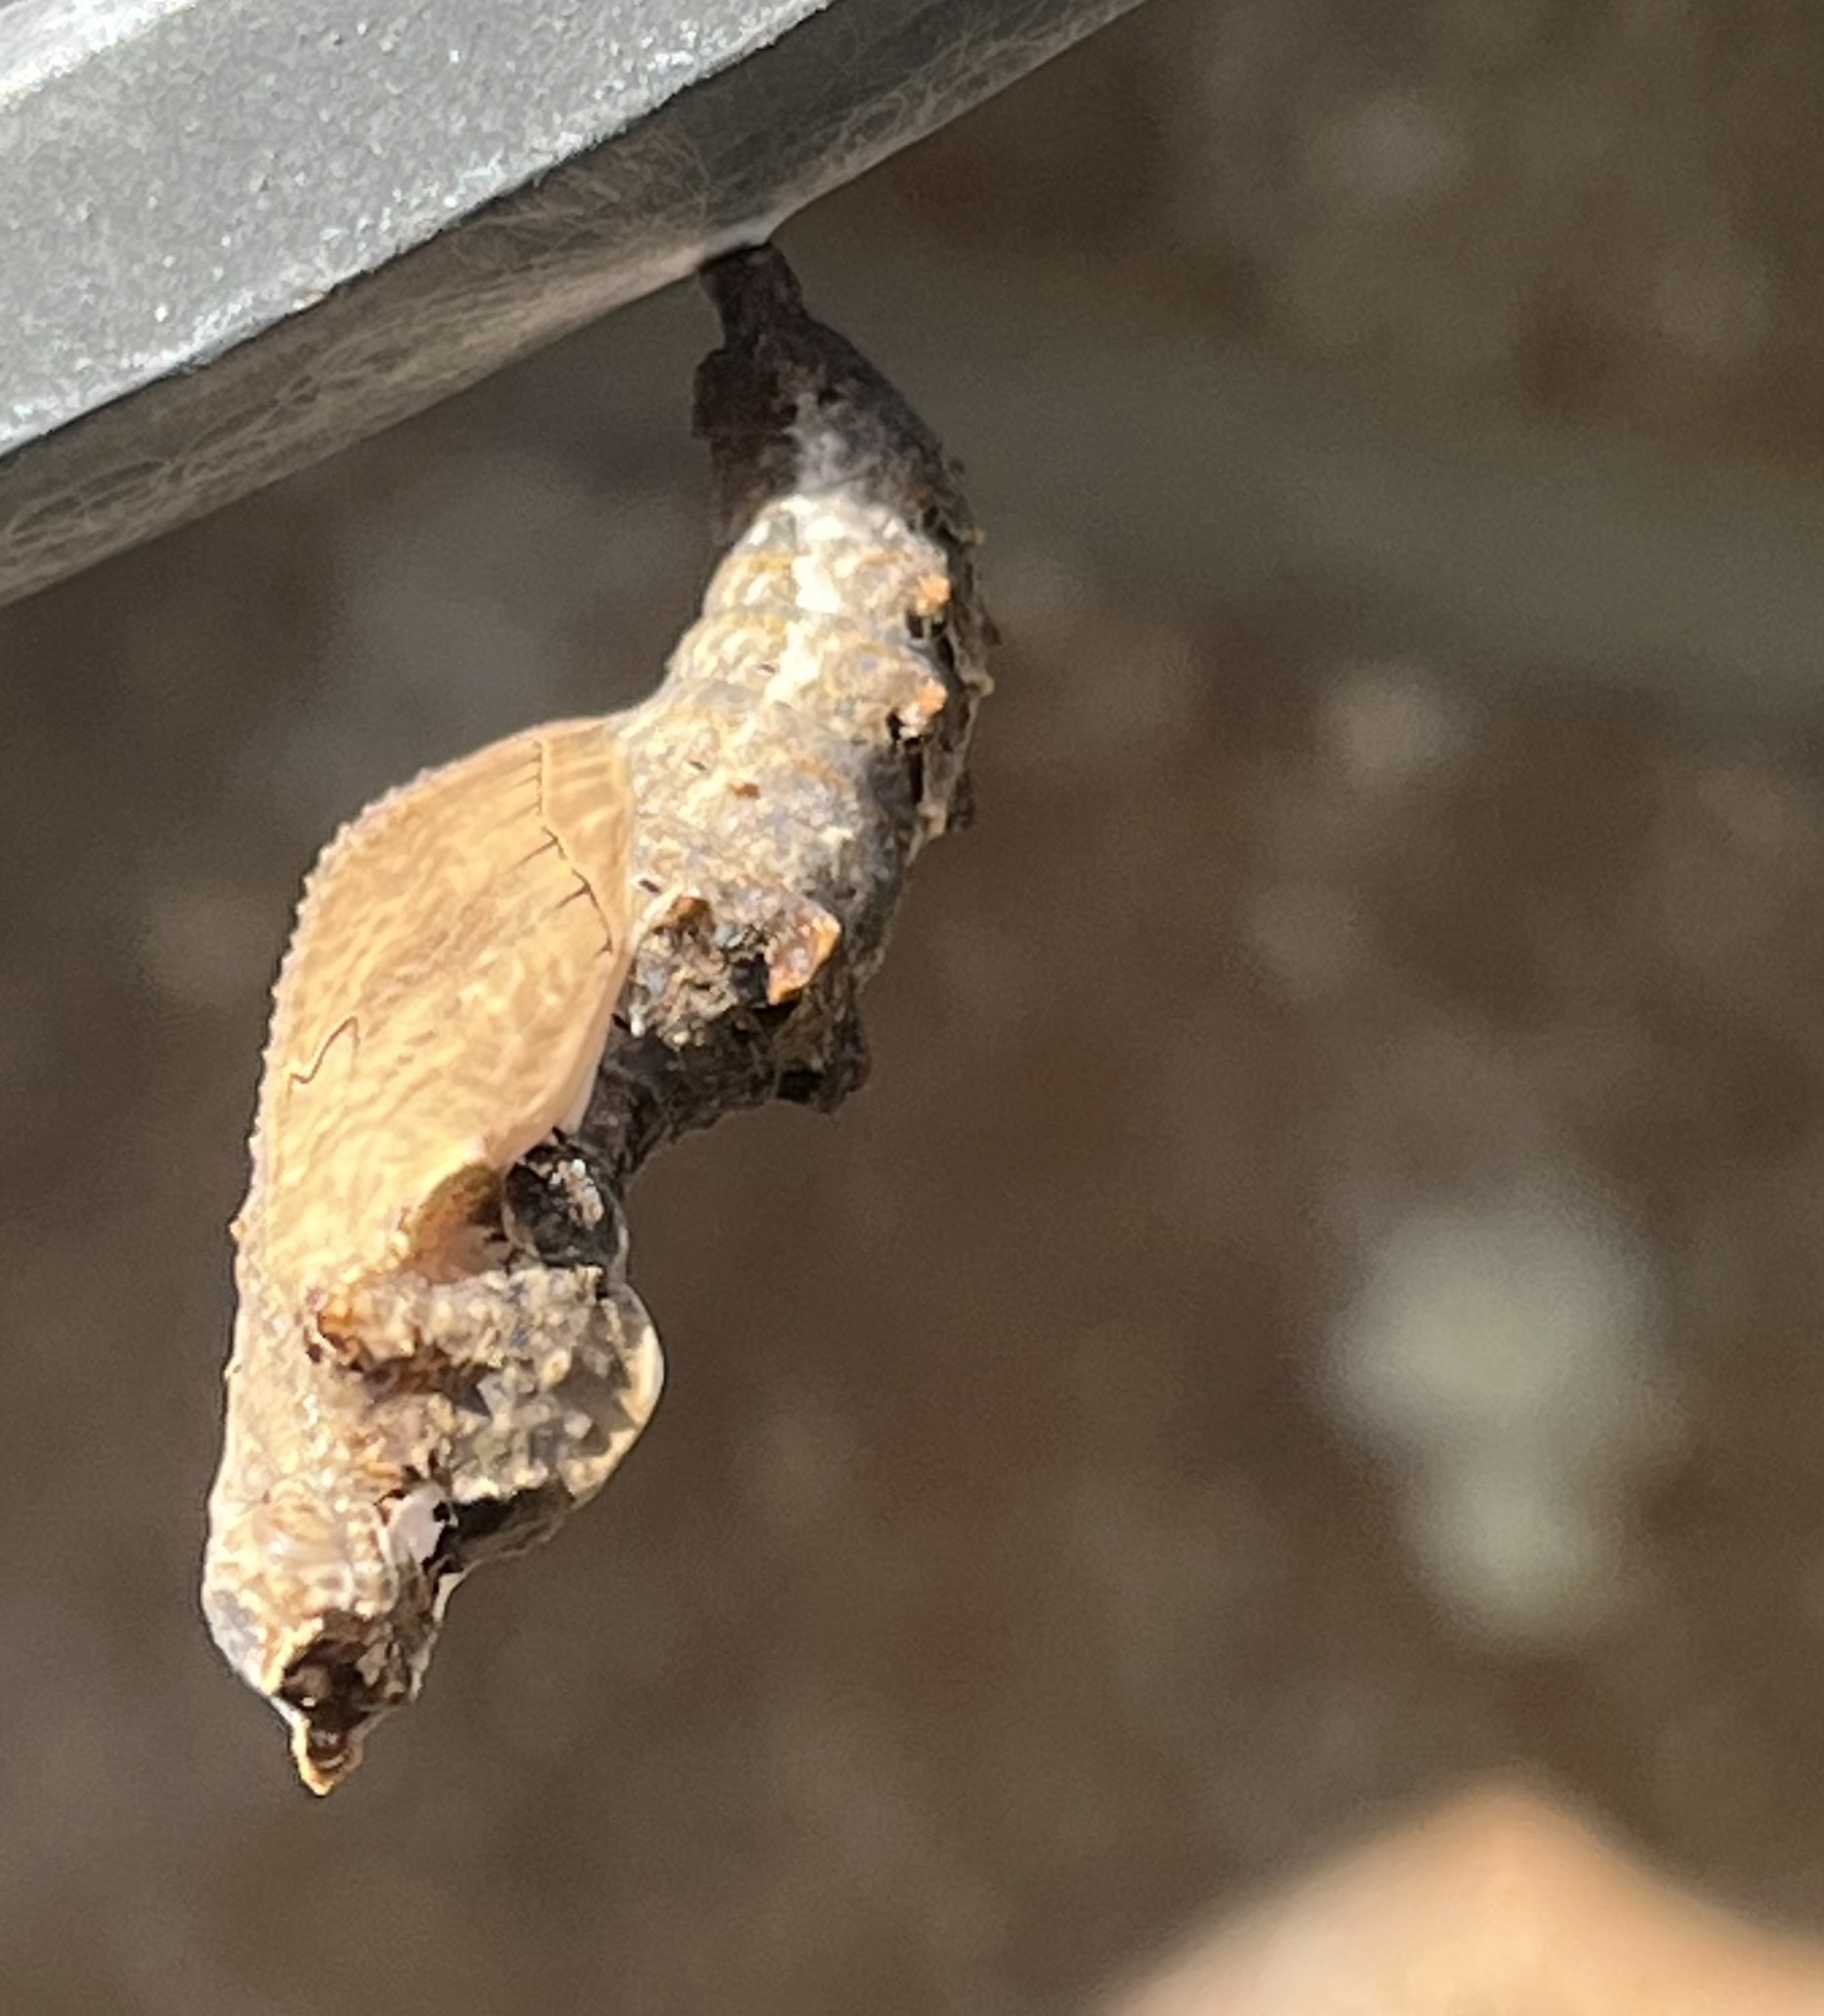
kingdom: Animalia
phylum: Arthropoda
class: Insecta
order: Lepidoptera
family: Nymphalidae
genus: Dione
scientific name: Dione vanillae
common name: Gulf fritillary
